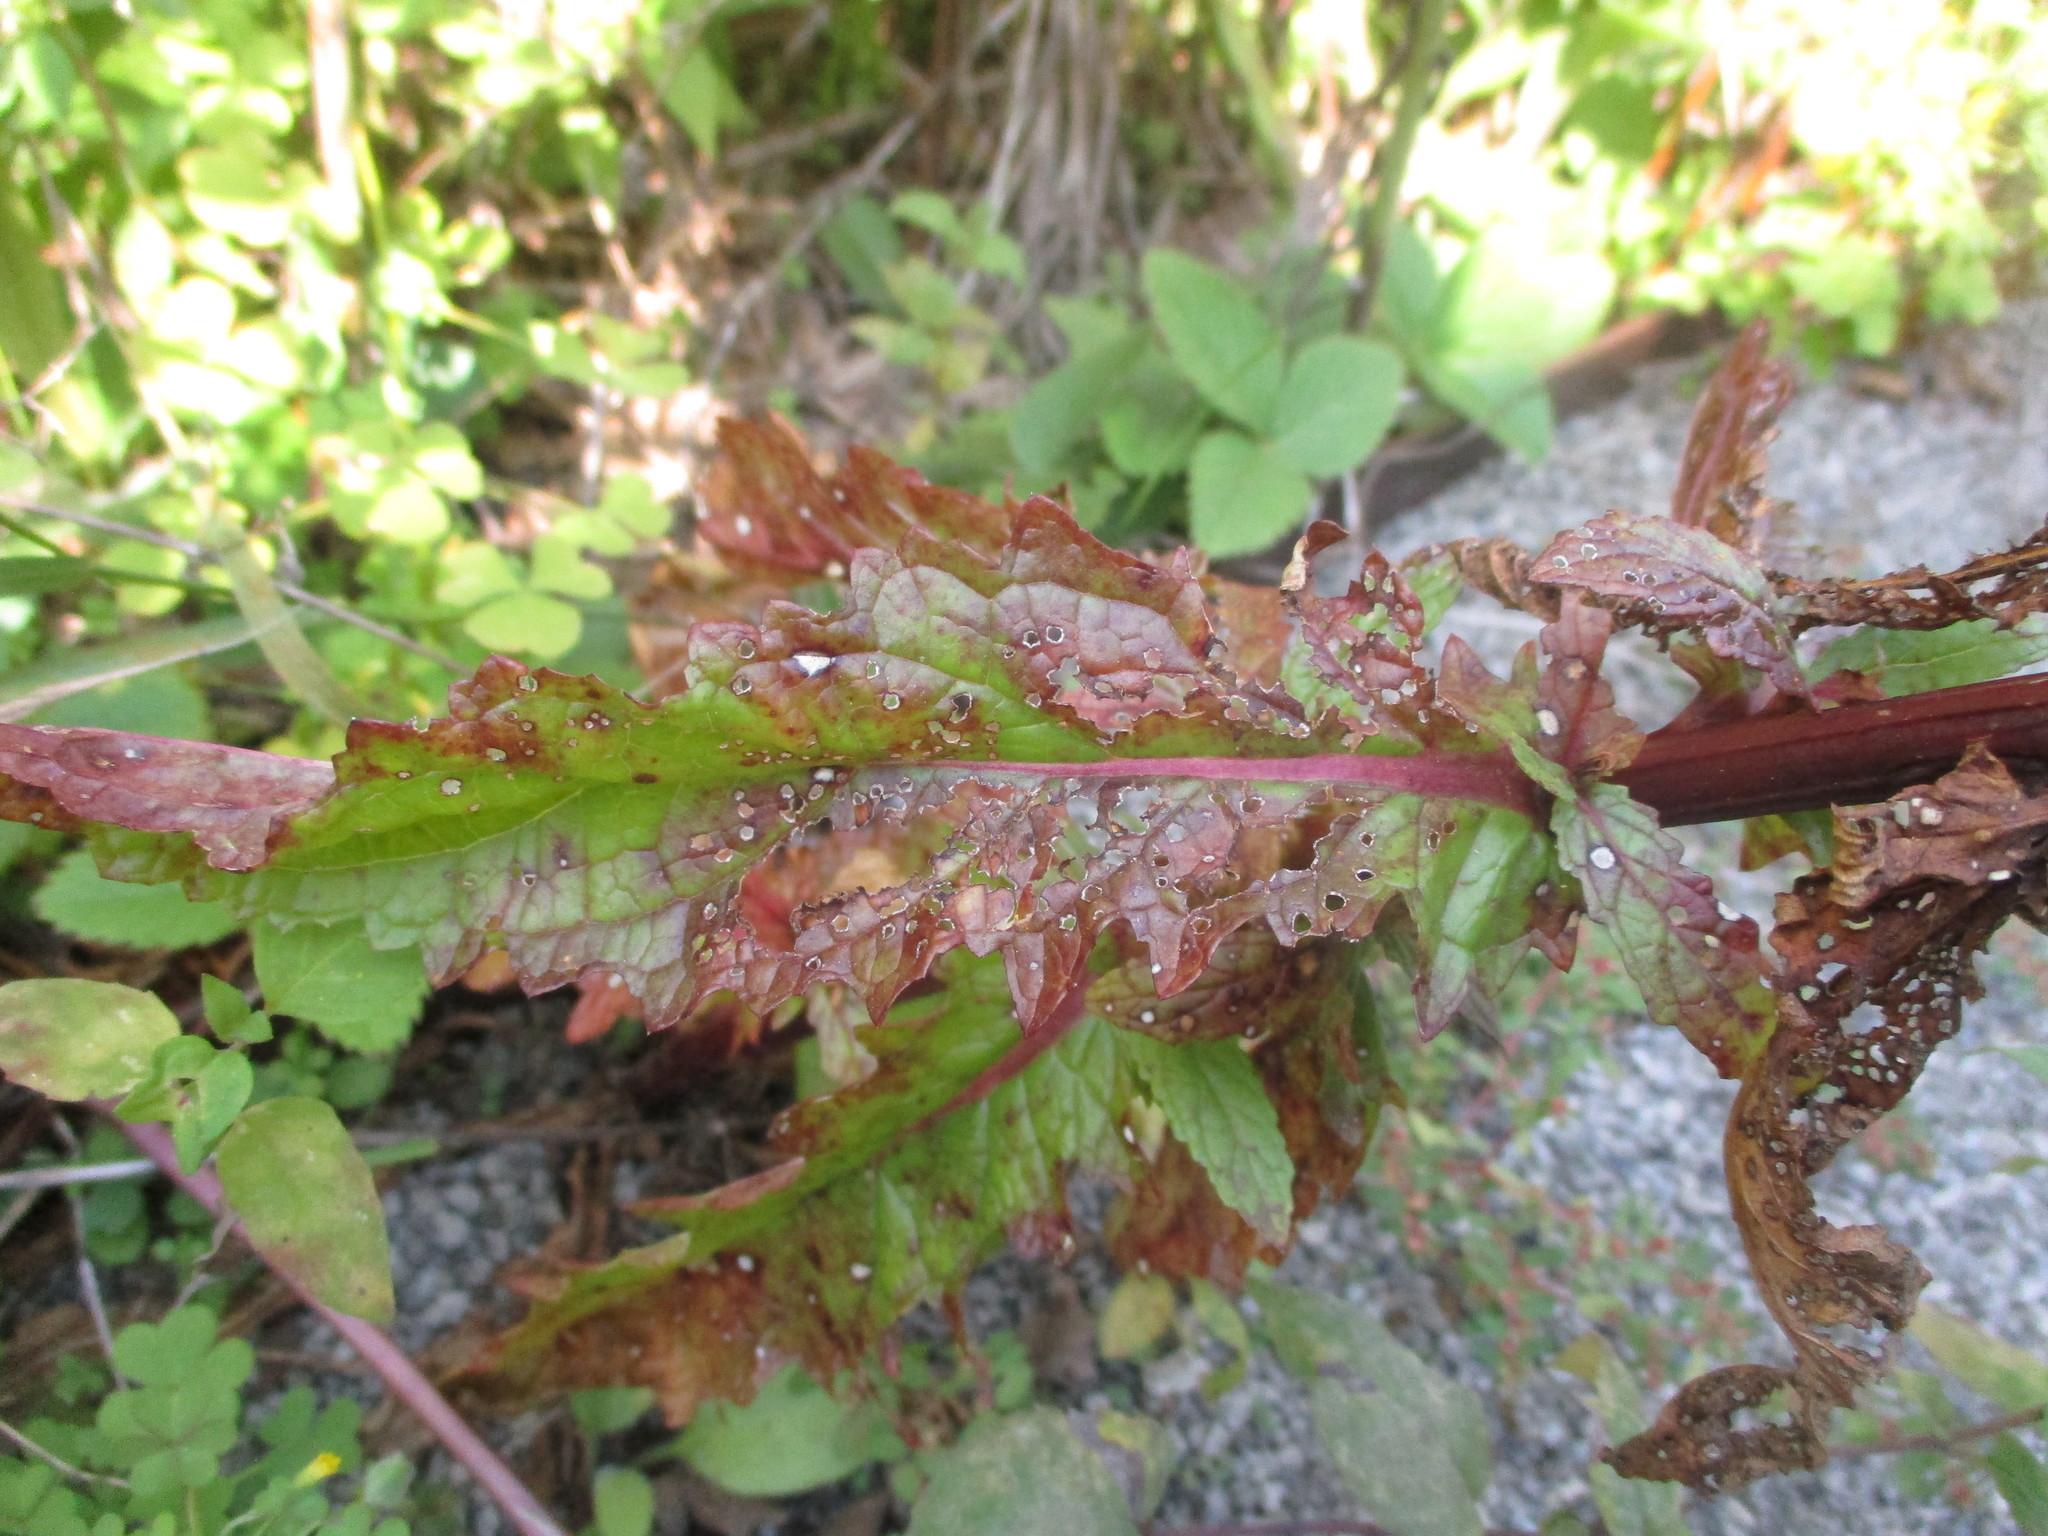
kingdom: Plantae
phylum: Tracheophyta
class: Magnoliopsida
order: Lamiales
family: Scrophulariaceae
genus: Verbascum
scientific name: Verbascum blattaria
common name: Moth mullein
